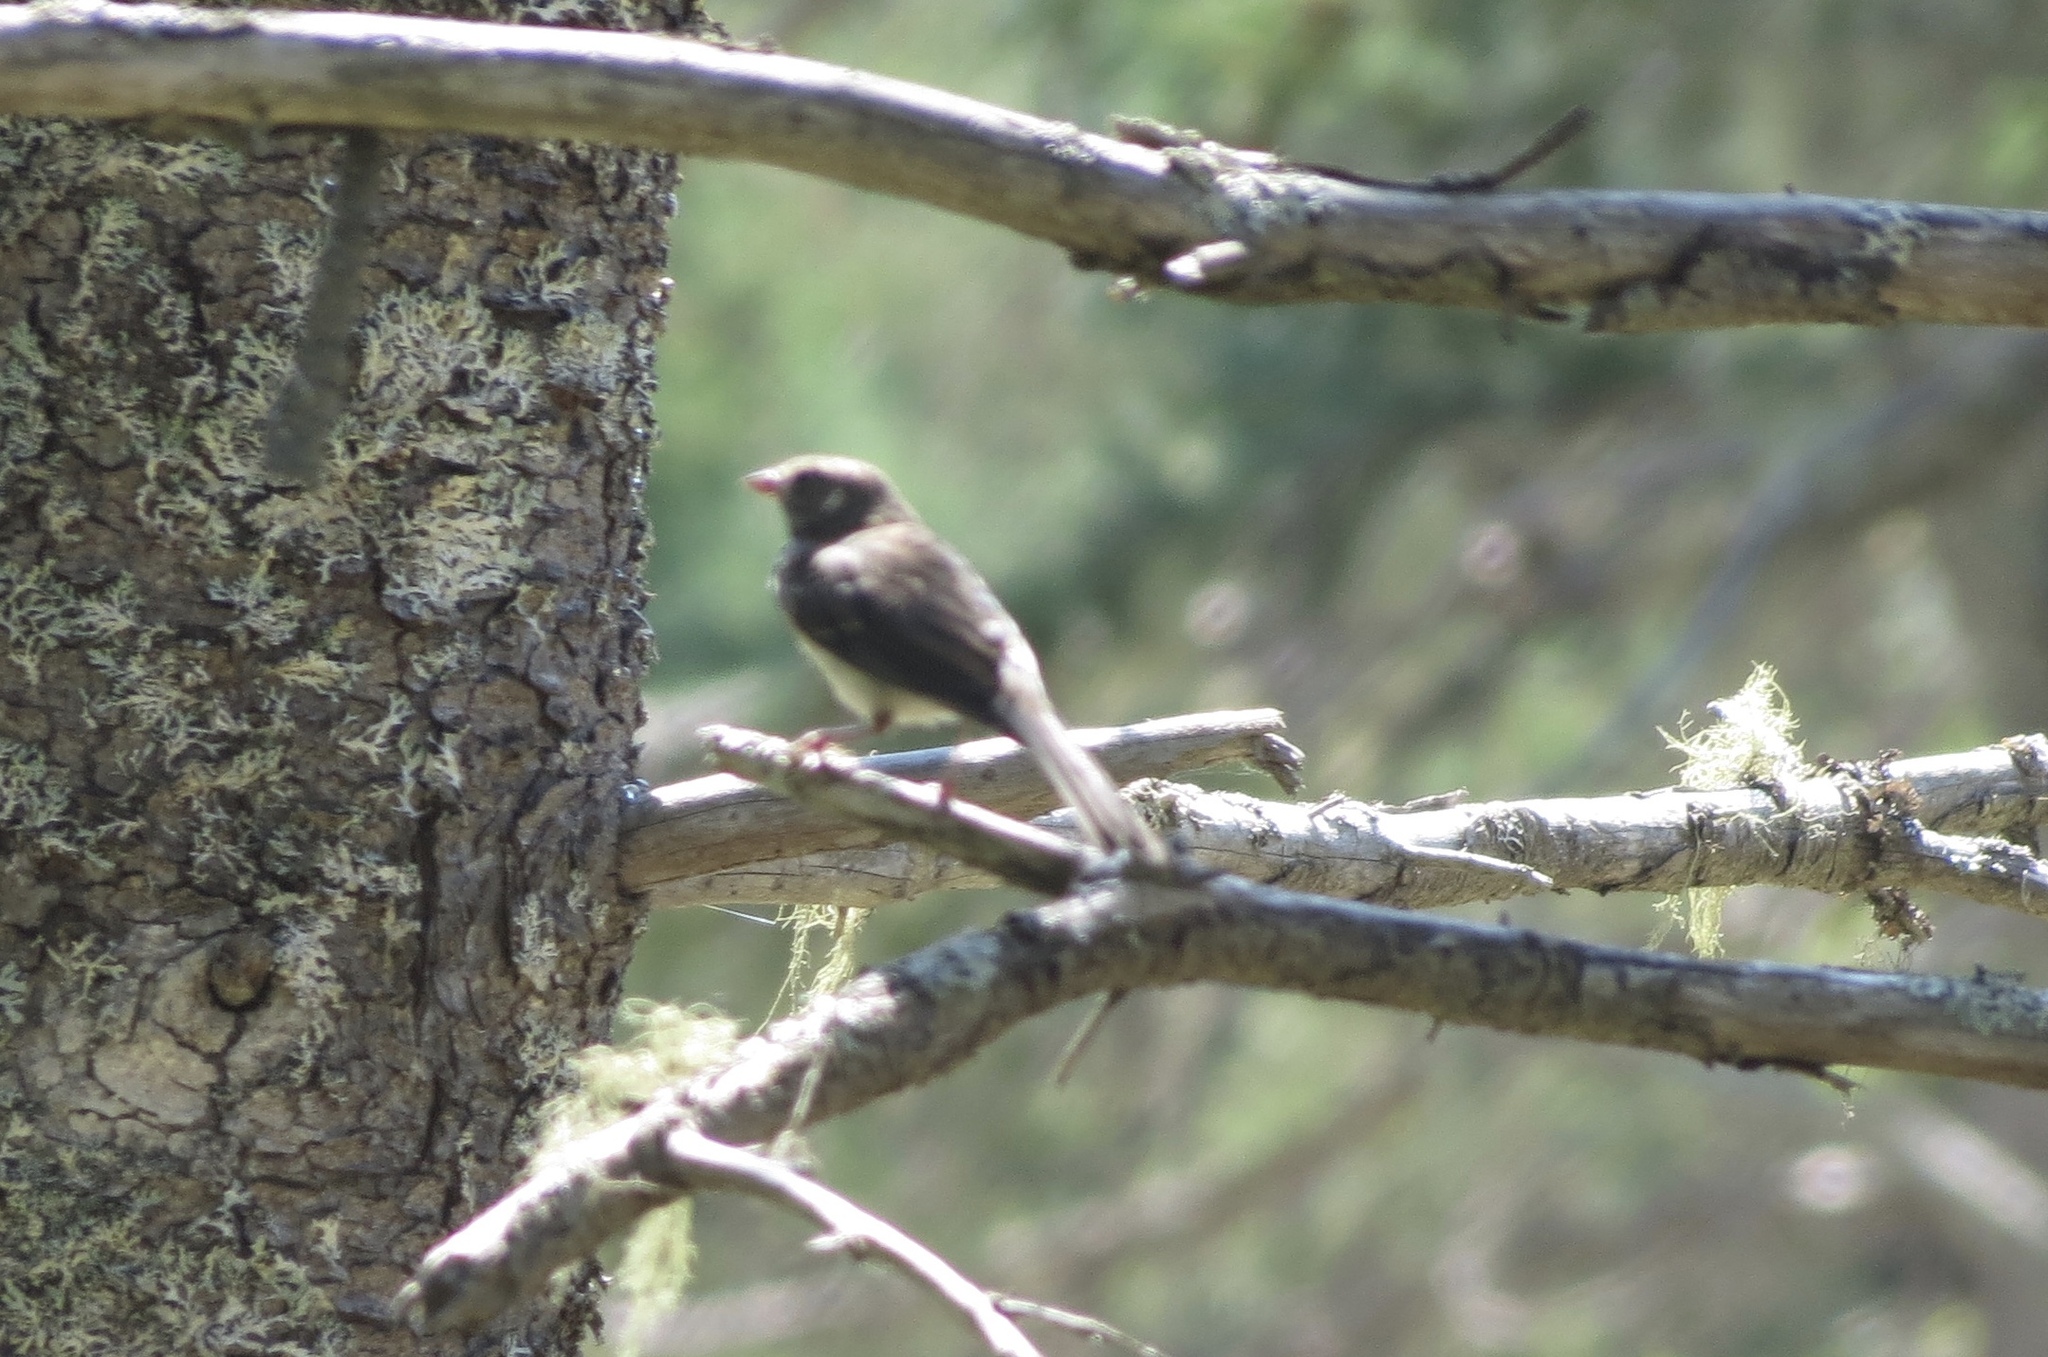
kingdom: Animalia
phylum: Chordata
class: Aves
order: Passeriformes
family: Passerellidae
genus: Junco
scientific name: Junco hyemalis
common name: Dark-eyed junco
